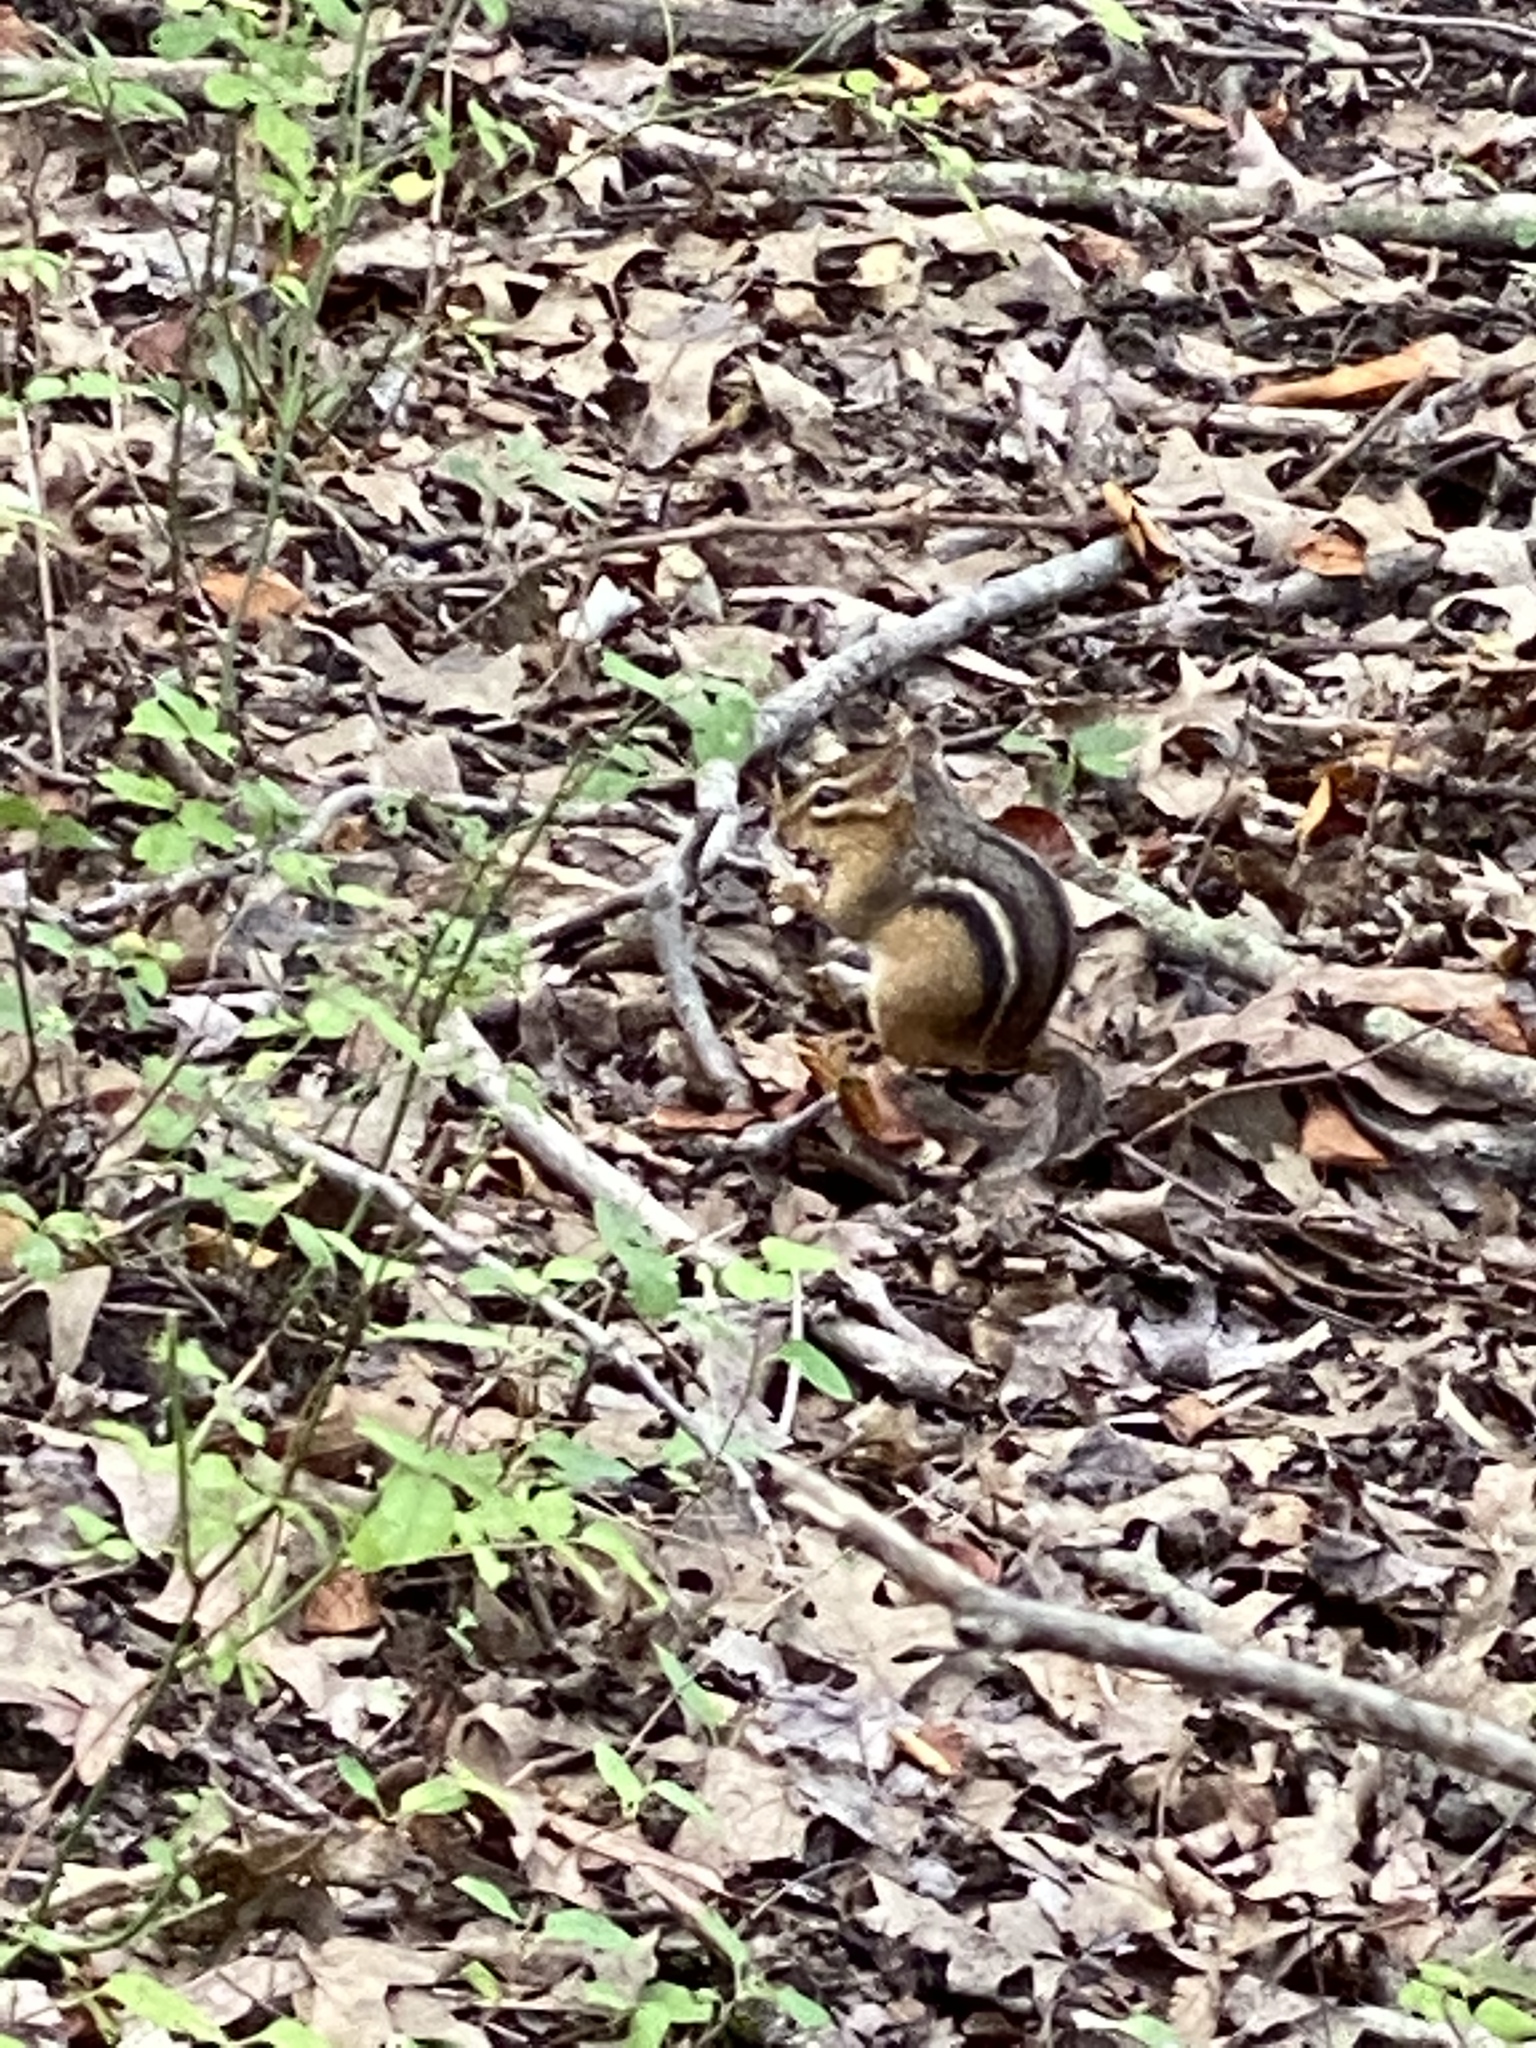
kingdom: Animalia
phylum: Chordata
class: Mammalia
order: Rodentia
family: Sciuridae
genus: Tamias
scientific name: Tamias striatus
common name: Eastern chipmunk
